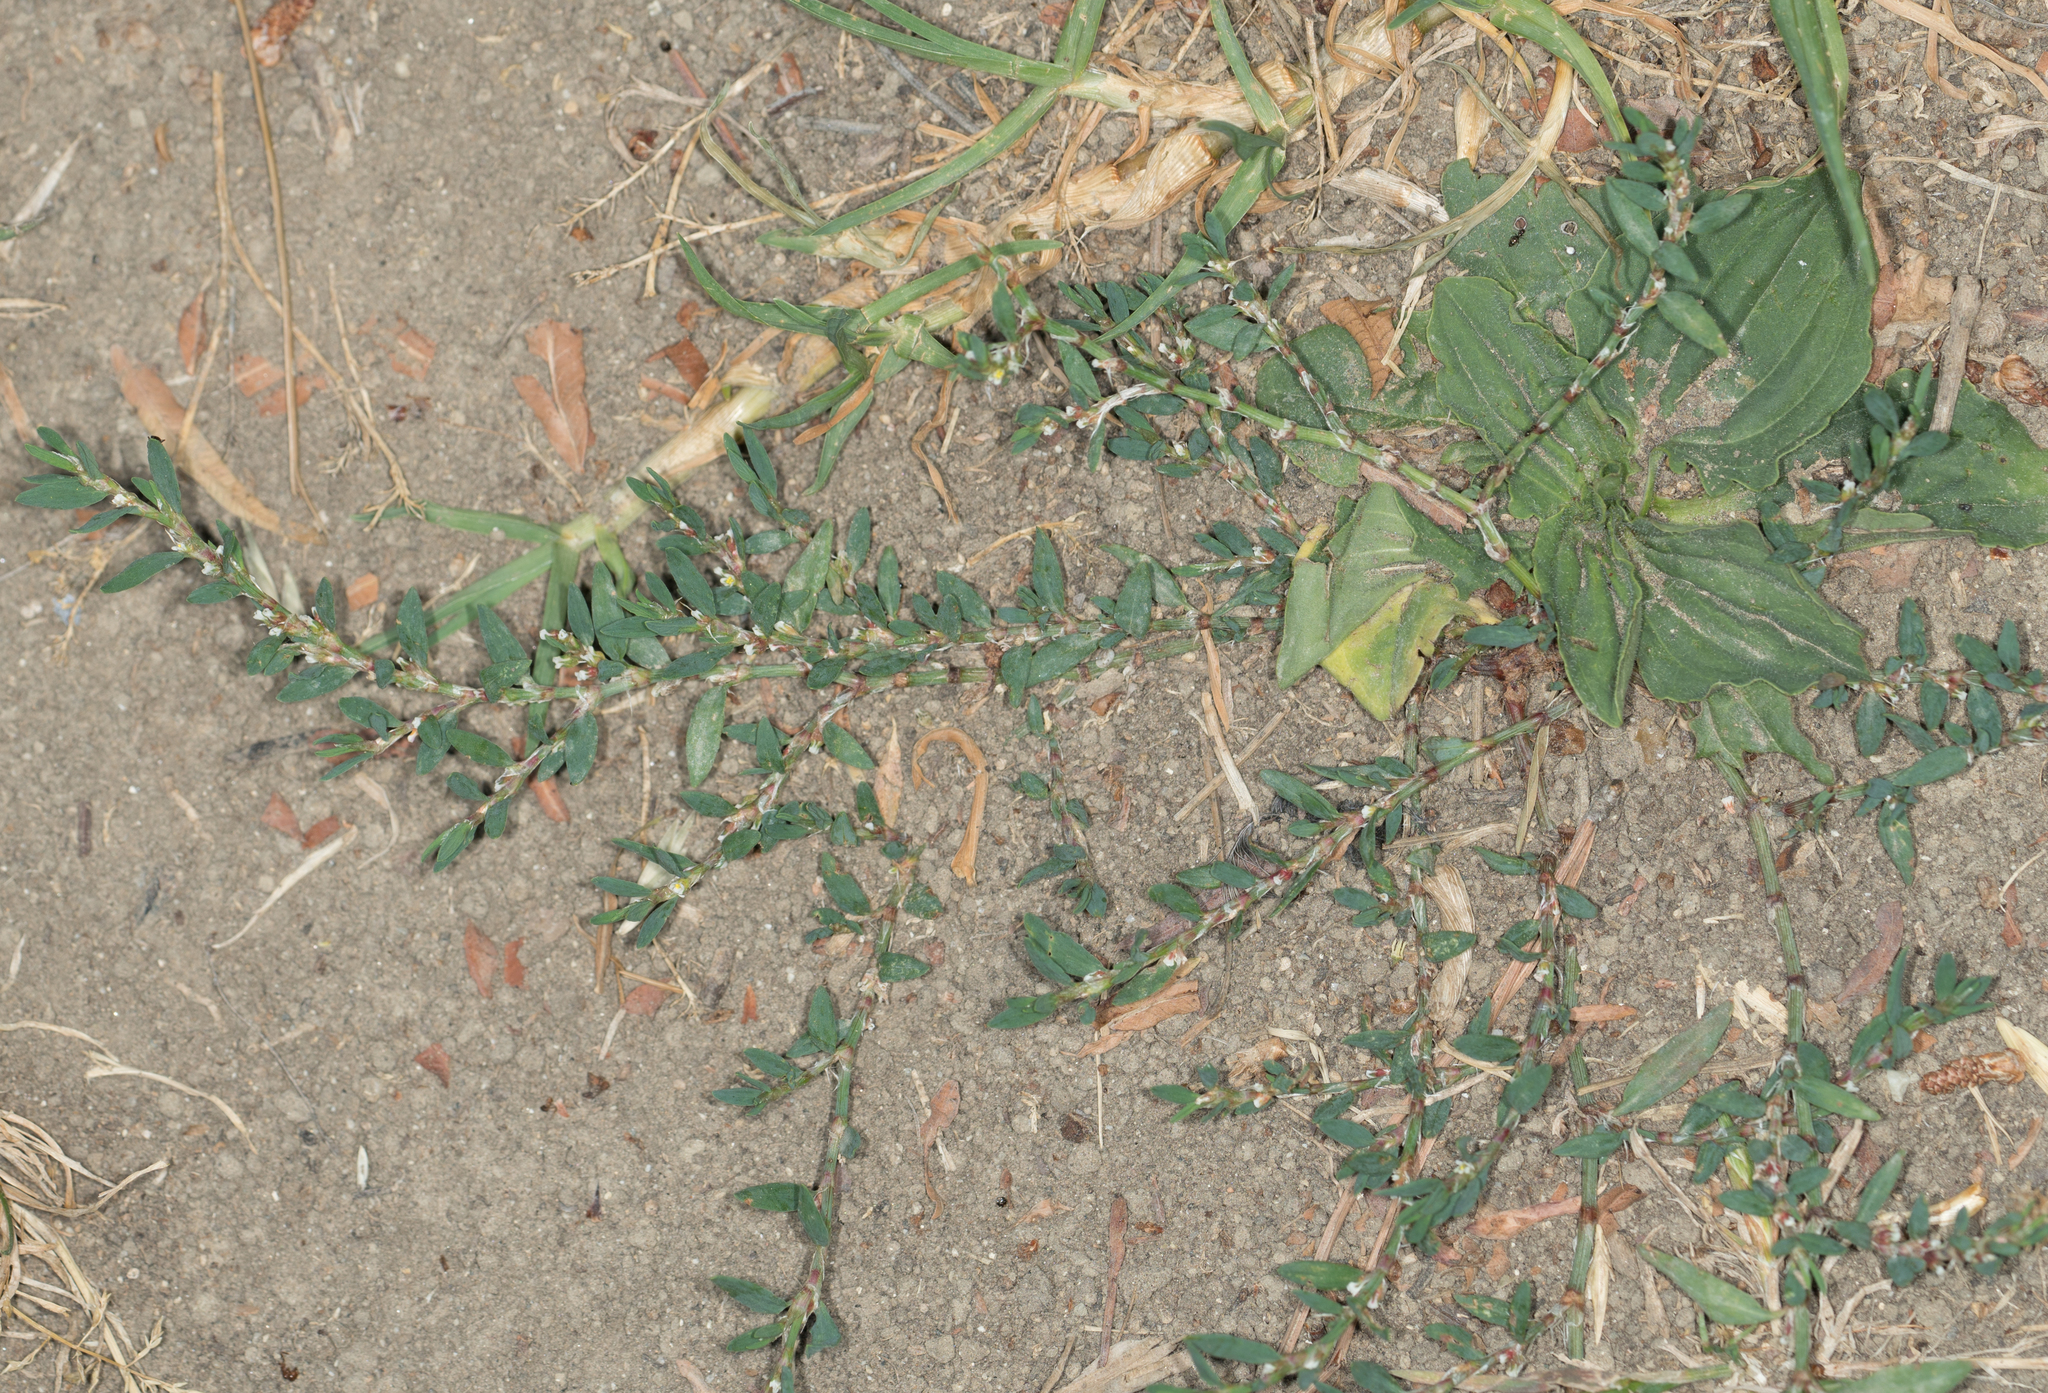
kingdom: Plantae
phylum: Tracheophyta
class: Magnoliopsida
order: Caryophyllales
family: Polygonaceae
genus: Polygonum
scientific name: Polygonum aviculare
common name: Prostrate knotweed
